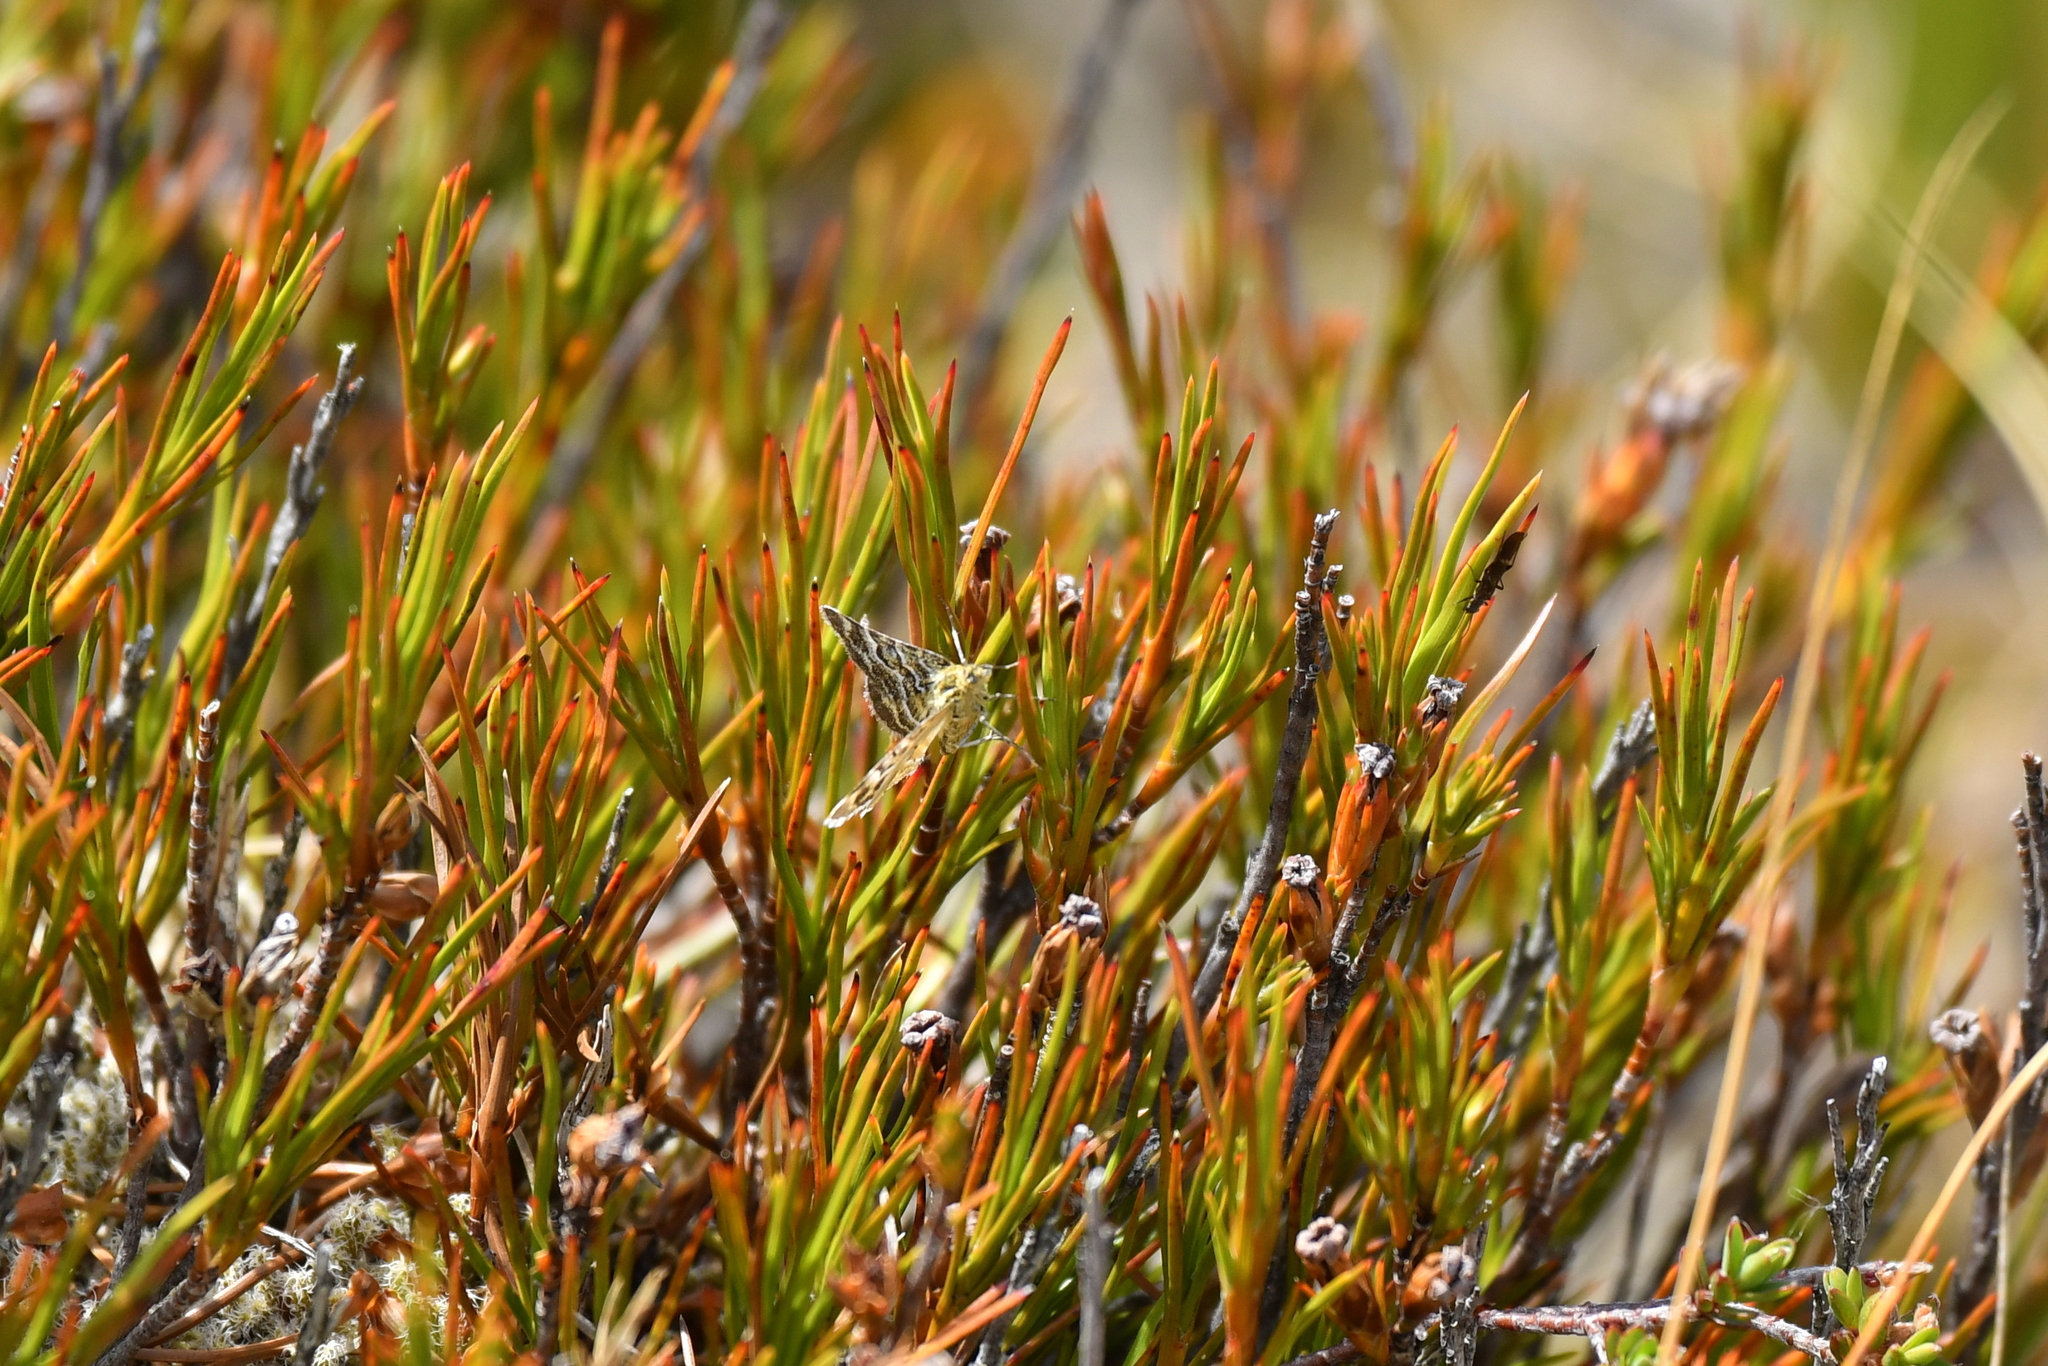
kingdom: Animalia
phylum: Arthropoda
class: Insecta
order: Lepidoptera
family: Geometridae
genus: Notoreas
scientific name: Notoreas paradelpha
